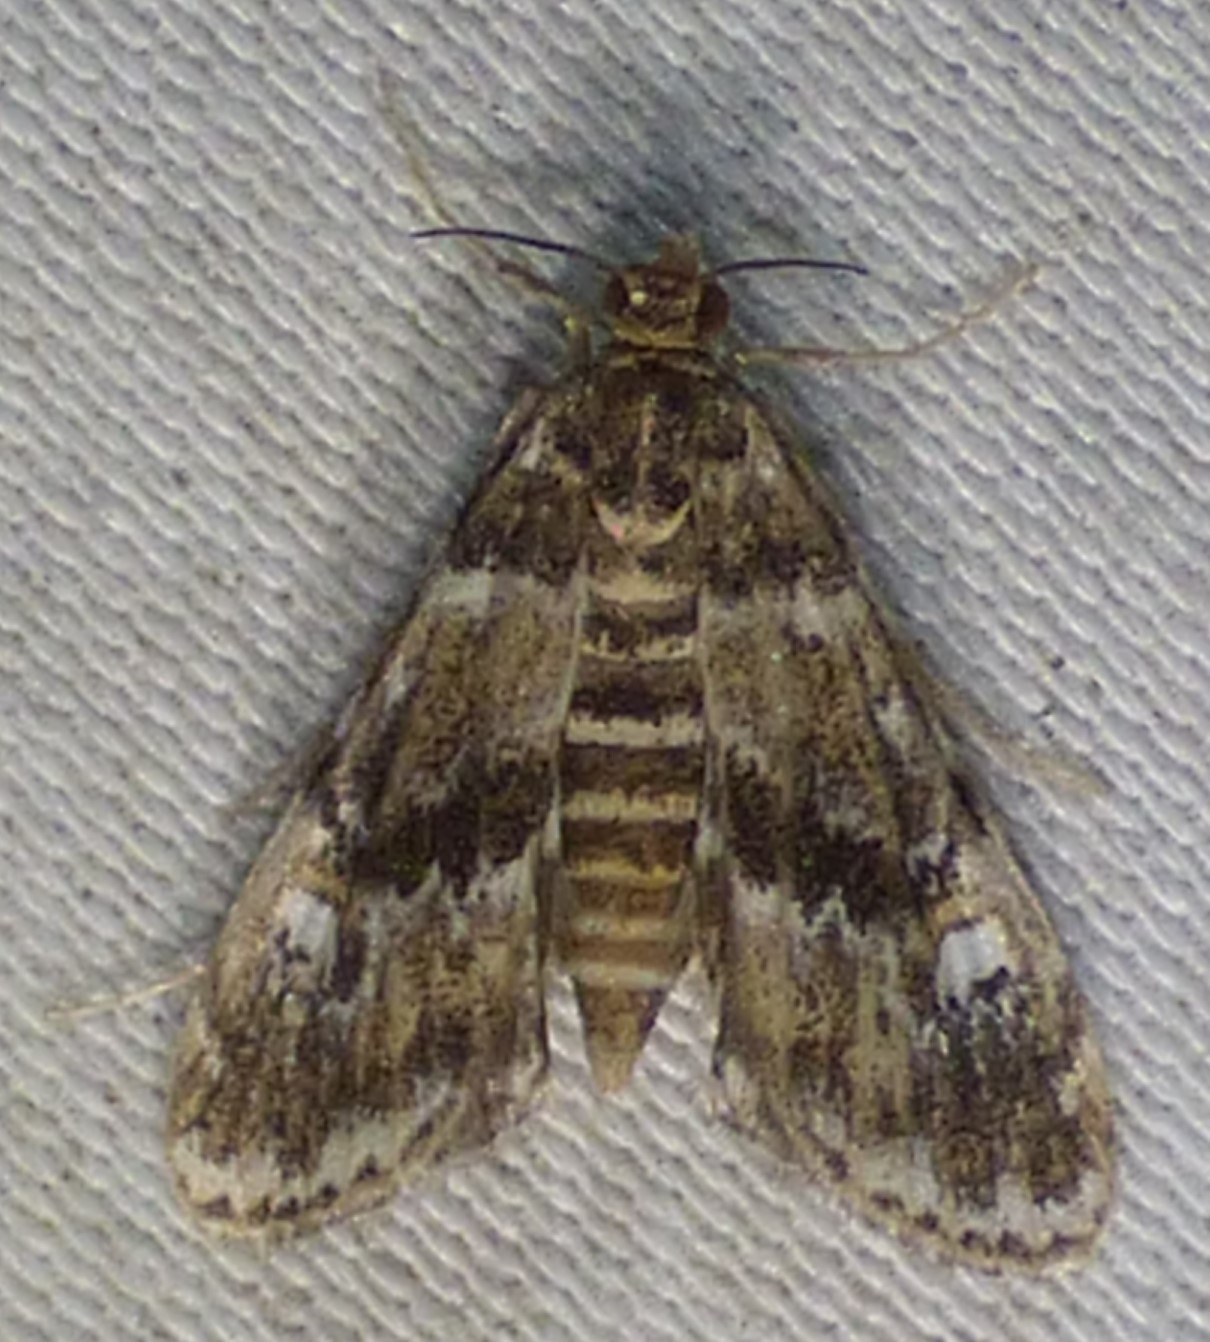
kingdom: Animalia
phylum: Arthropoda
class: Insecta
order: Lepidoptera
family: Crambidae
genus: Elophila
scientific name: Elophila obliteralis
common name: Waterlily leafcutter moth
